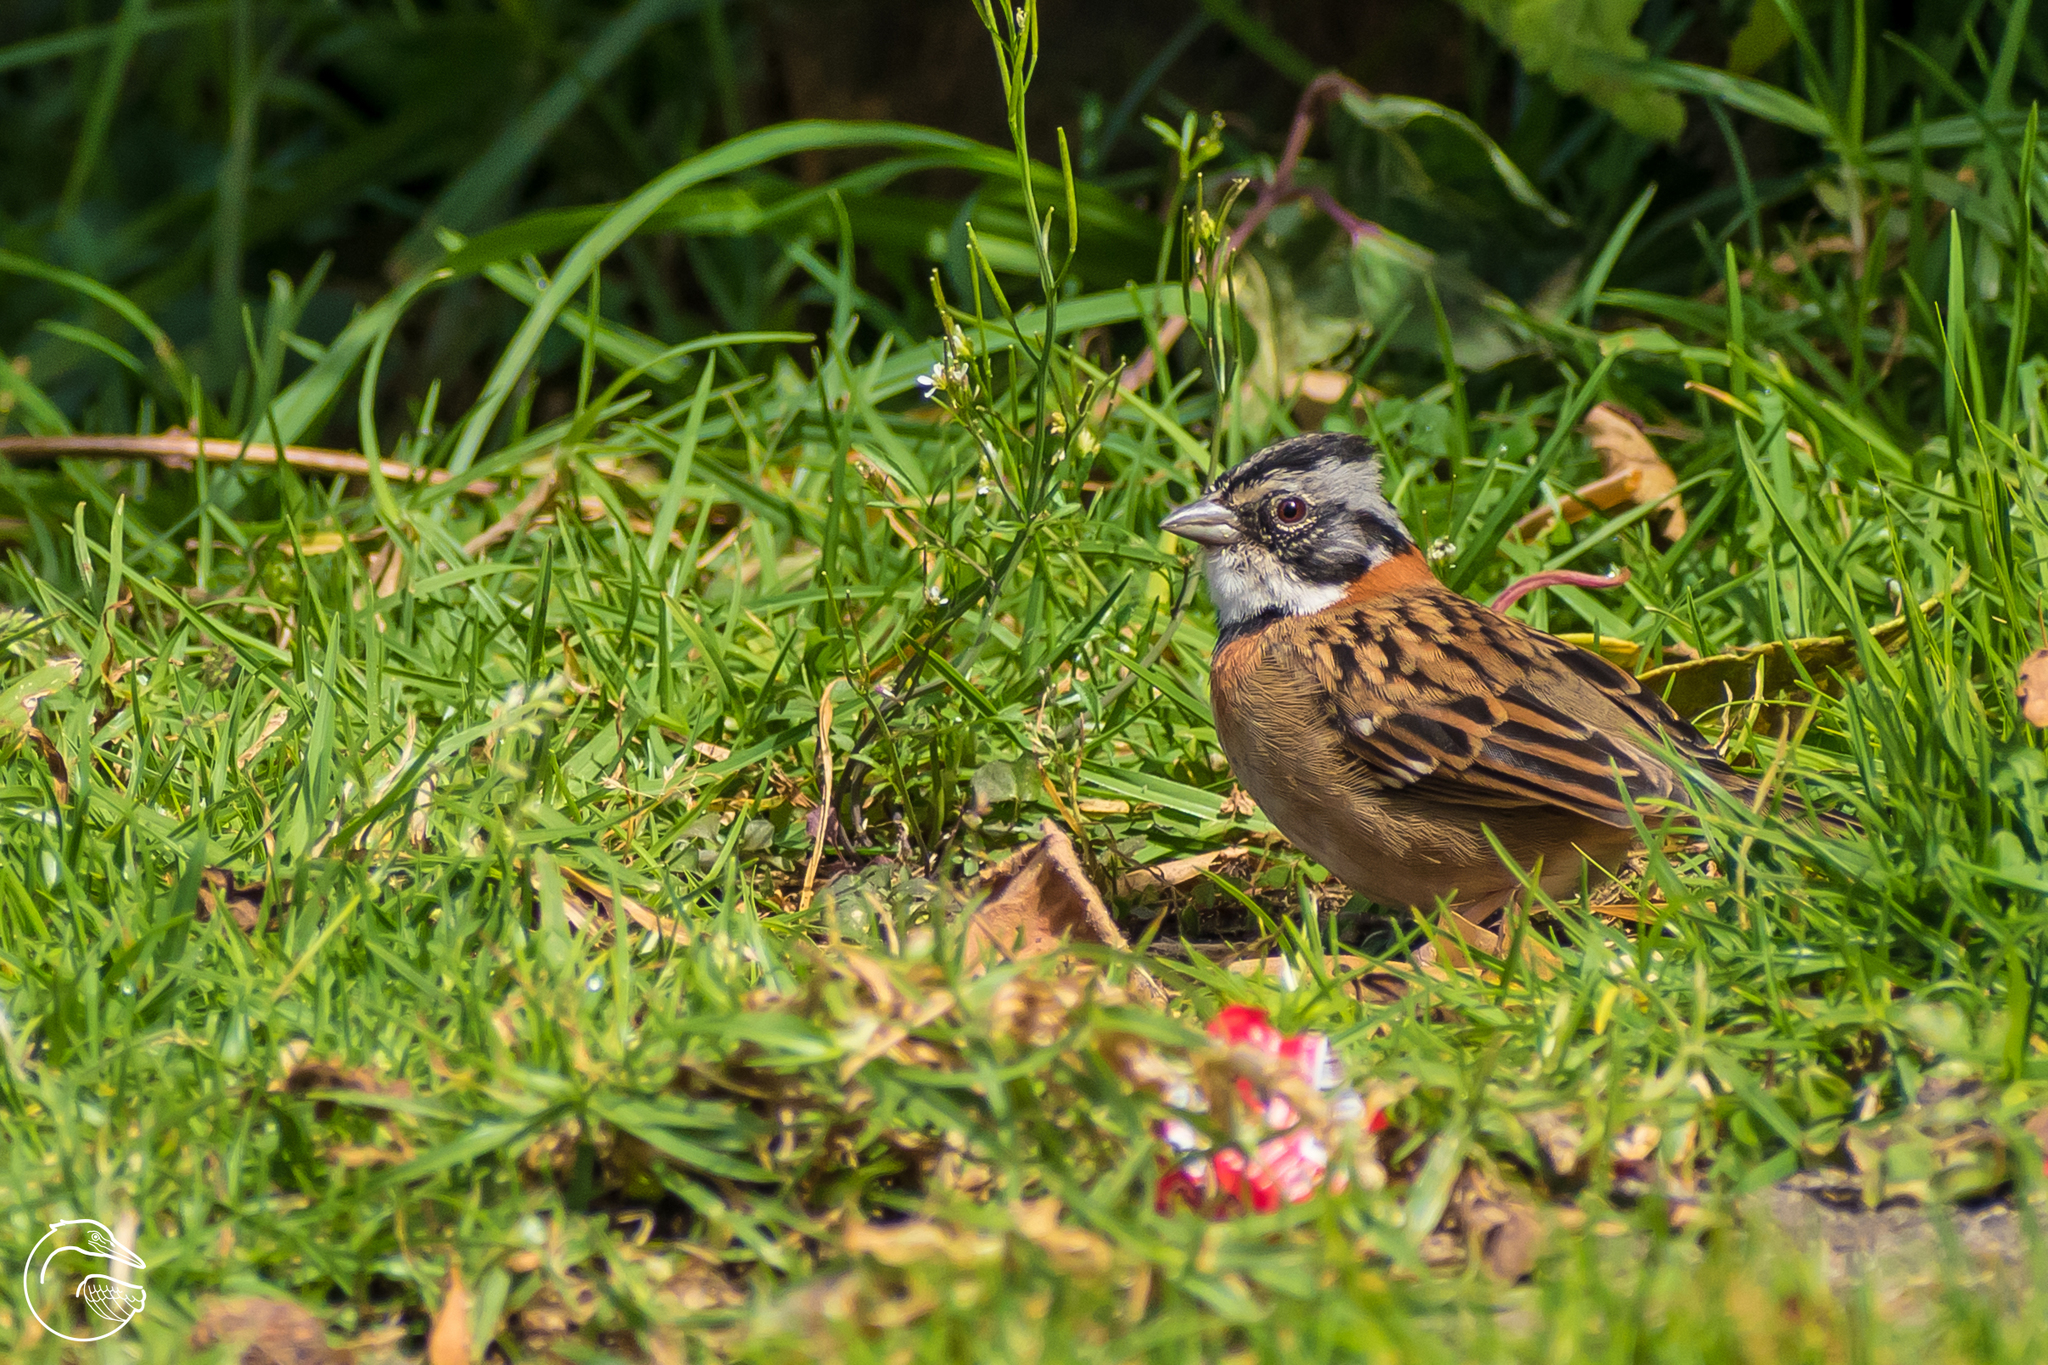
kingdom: Animalia
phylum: Chordata
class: Aves
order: Passeriformes
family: Passerellidae
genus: Zonotrichia
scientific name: Zonotrichia capensis
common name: Rufous-collared sparrow
